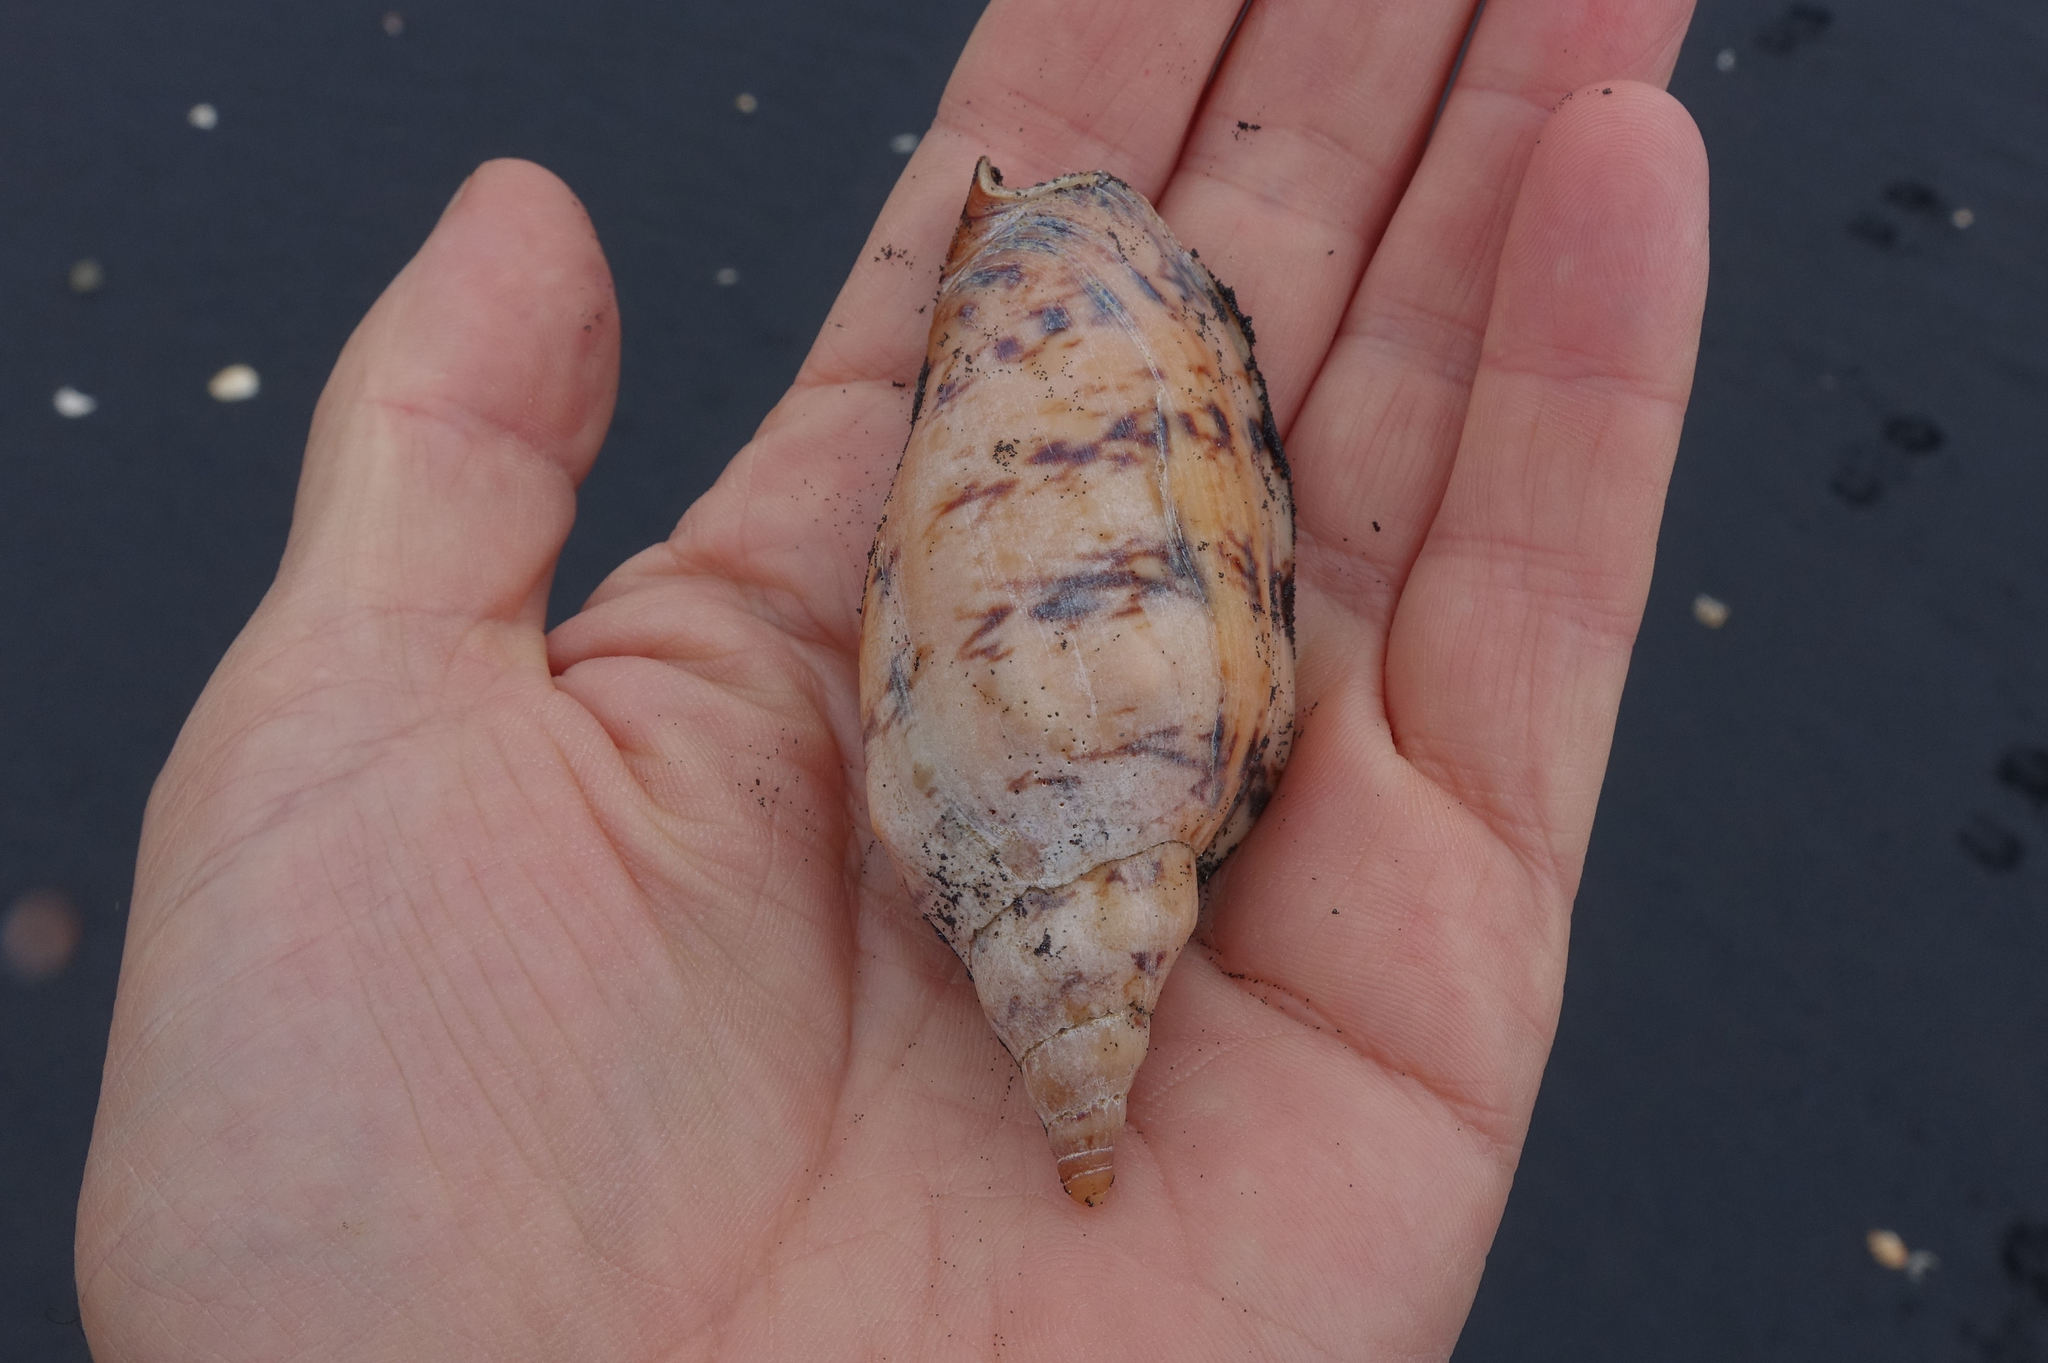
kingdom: Animalia
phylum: Mollusca
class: Gastropoda
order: Neogastropoda
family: Volutidae
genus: Alcithoe
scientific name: Alcithoe arabica
